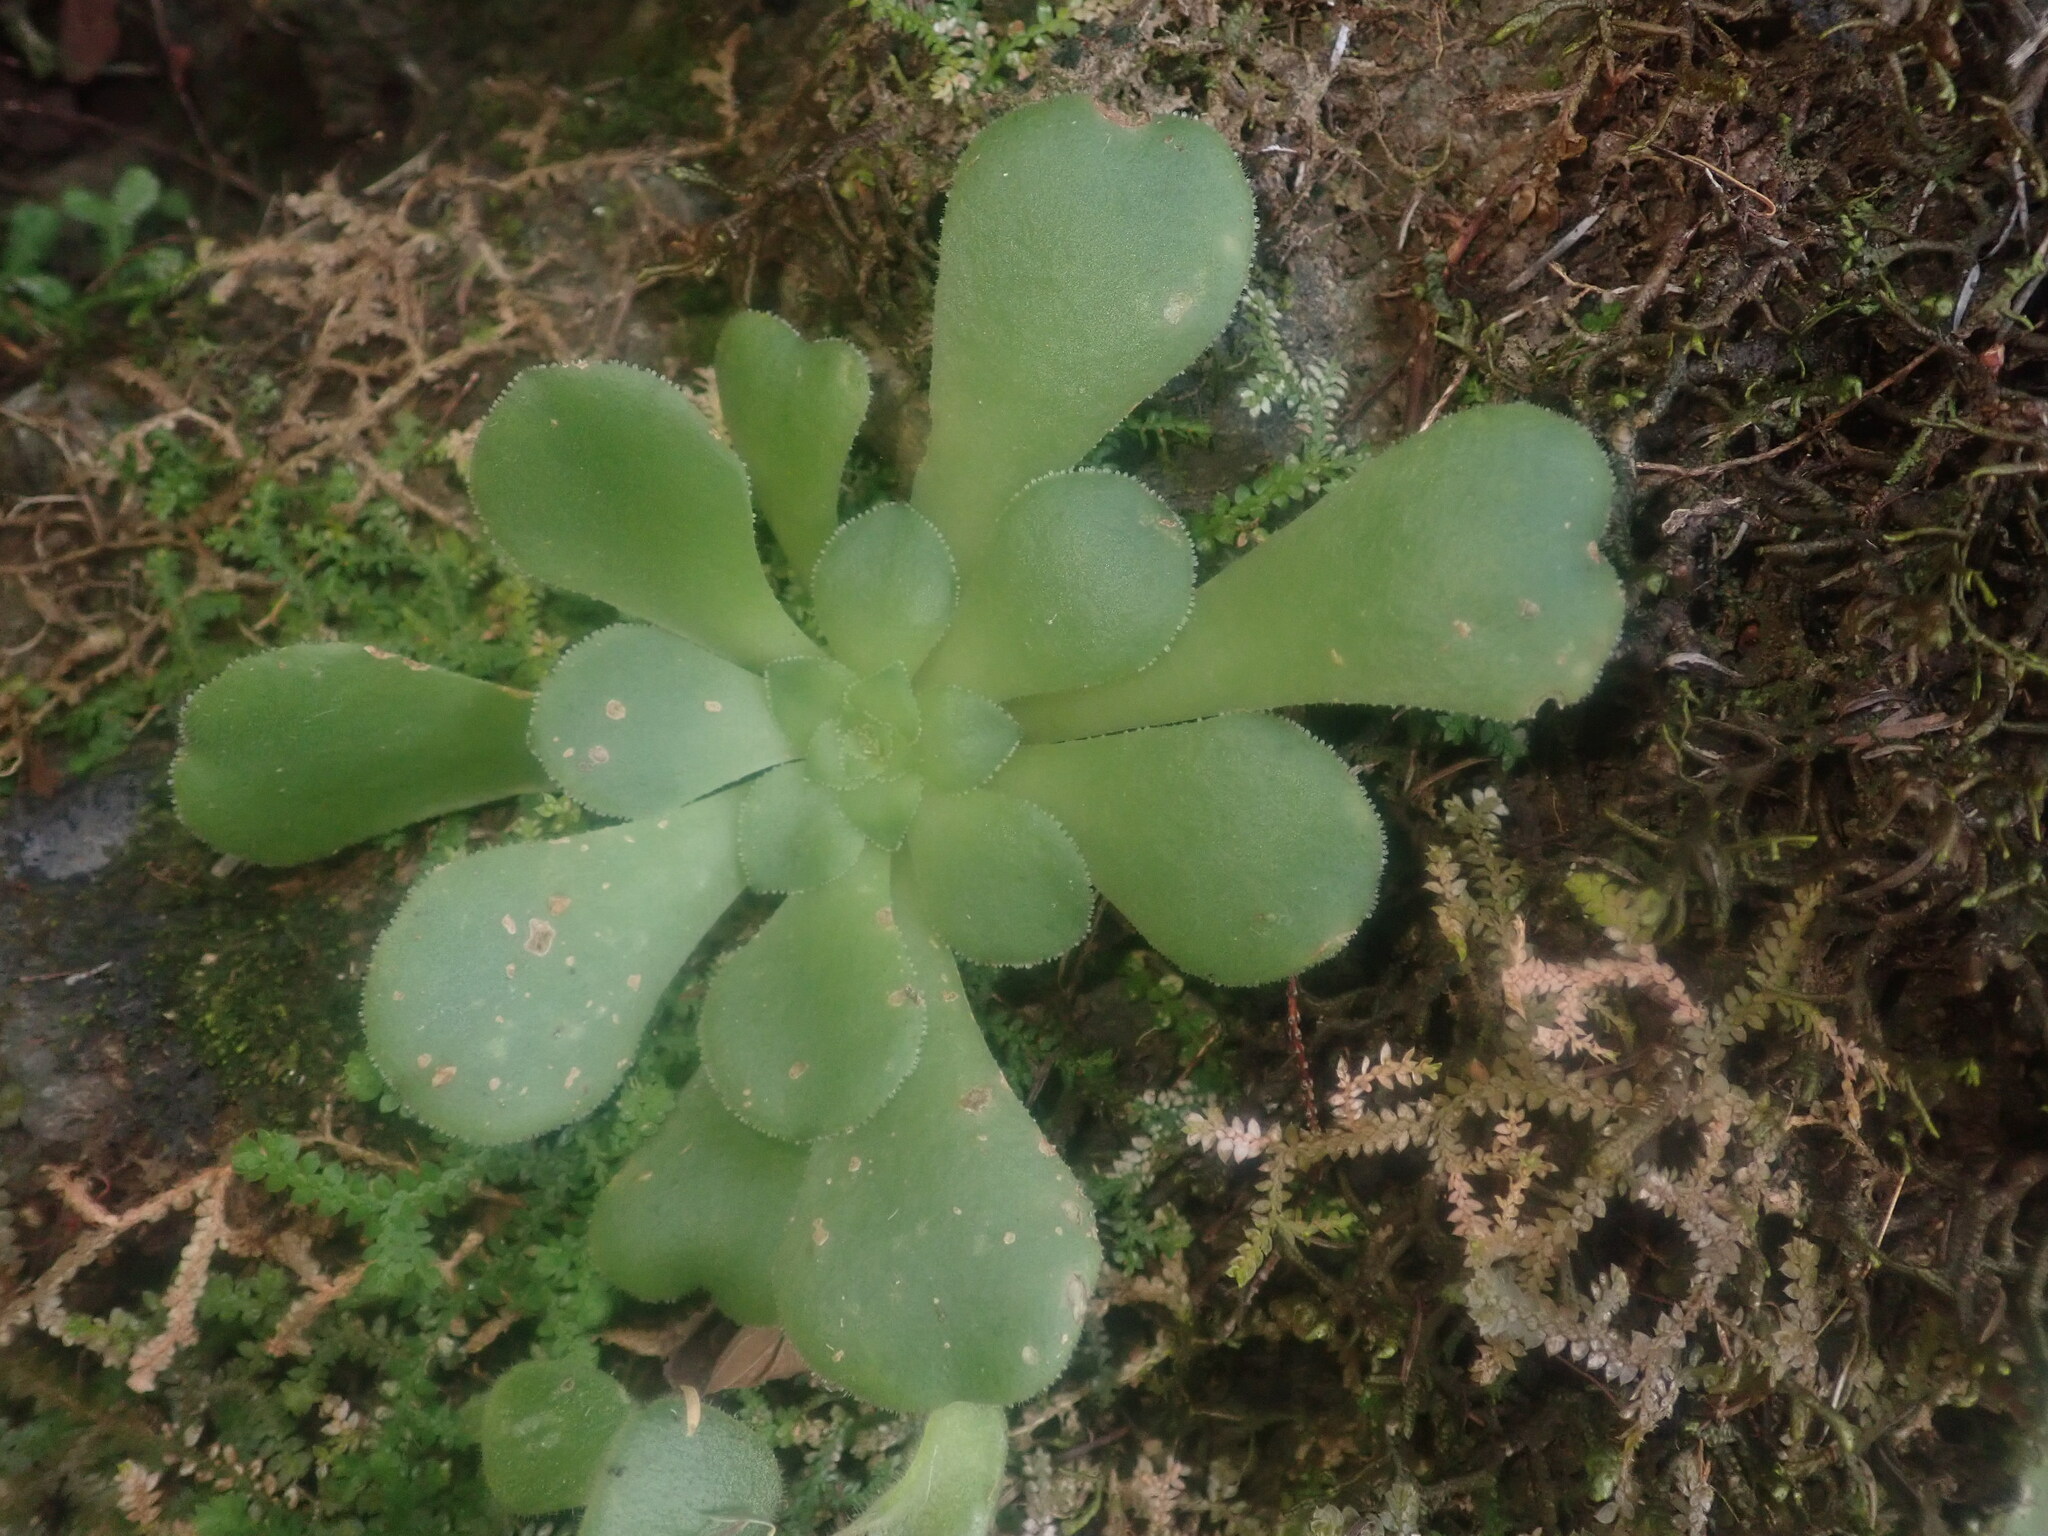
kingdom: Plantae
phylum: Tracheophyta
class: Magnoliopsida
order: Saxifragales
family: Crassulaceae
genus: Aeonium
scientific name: Aeonium glandulosum
